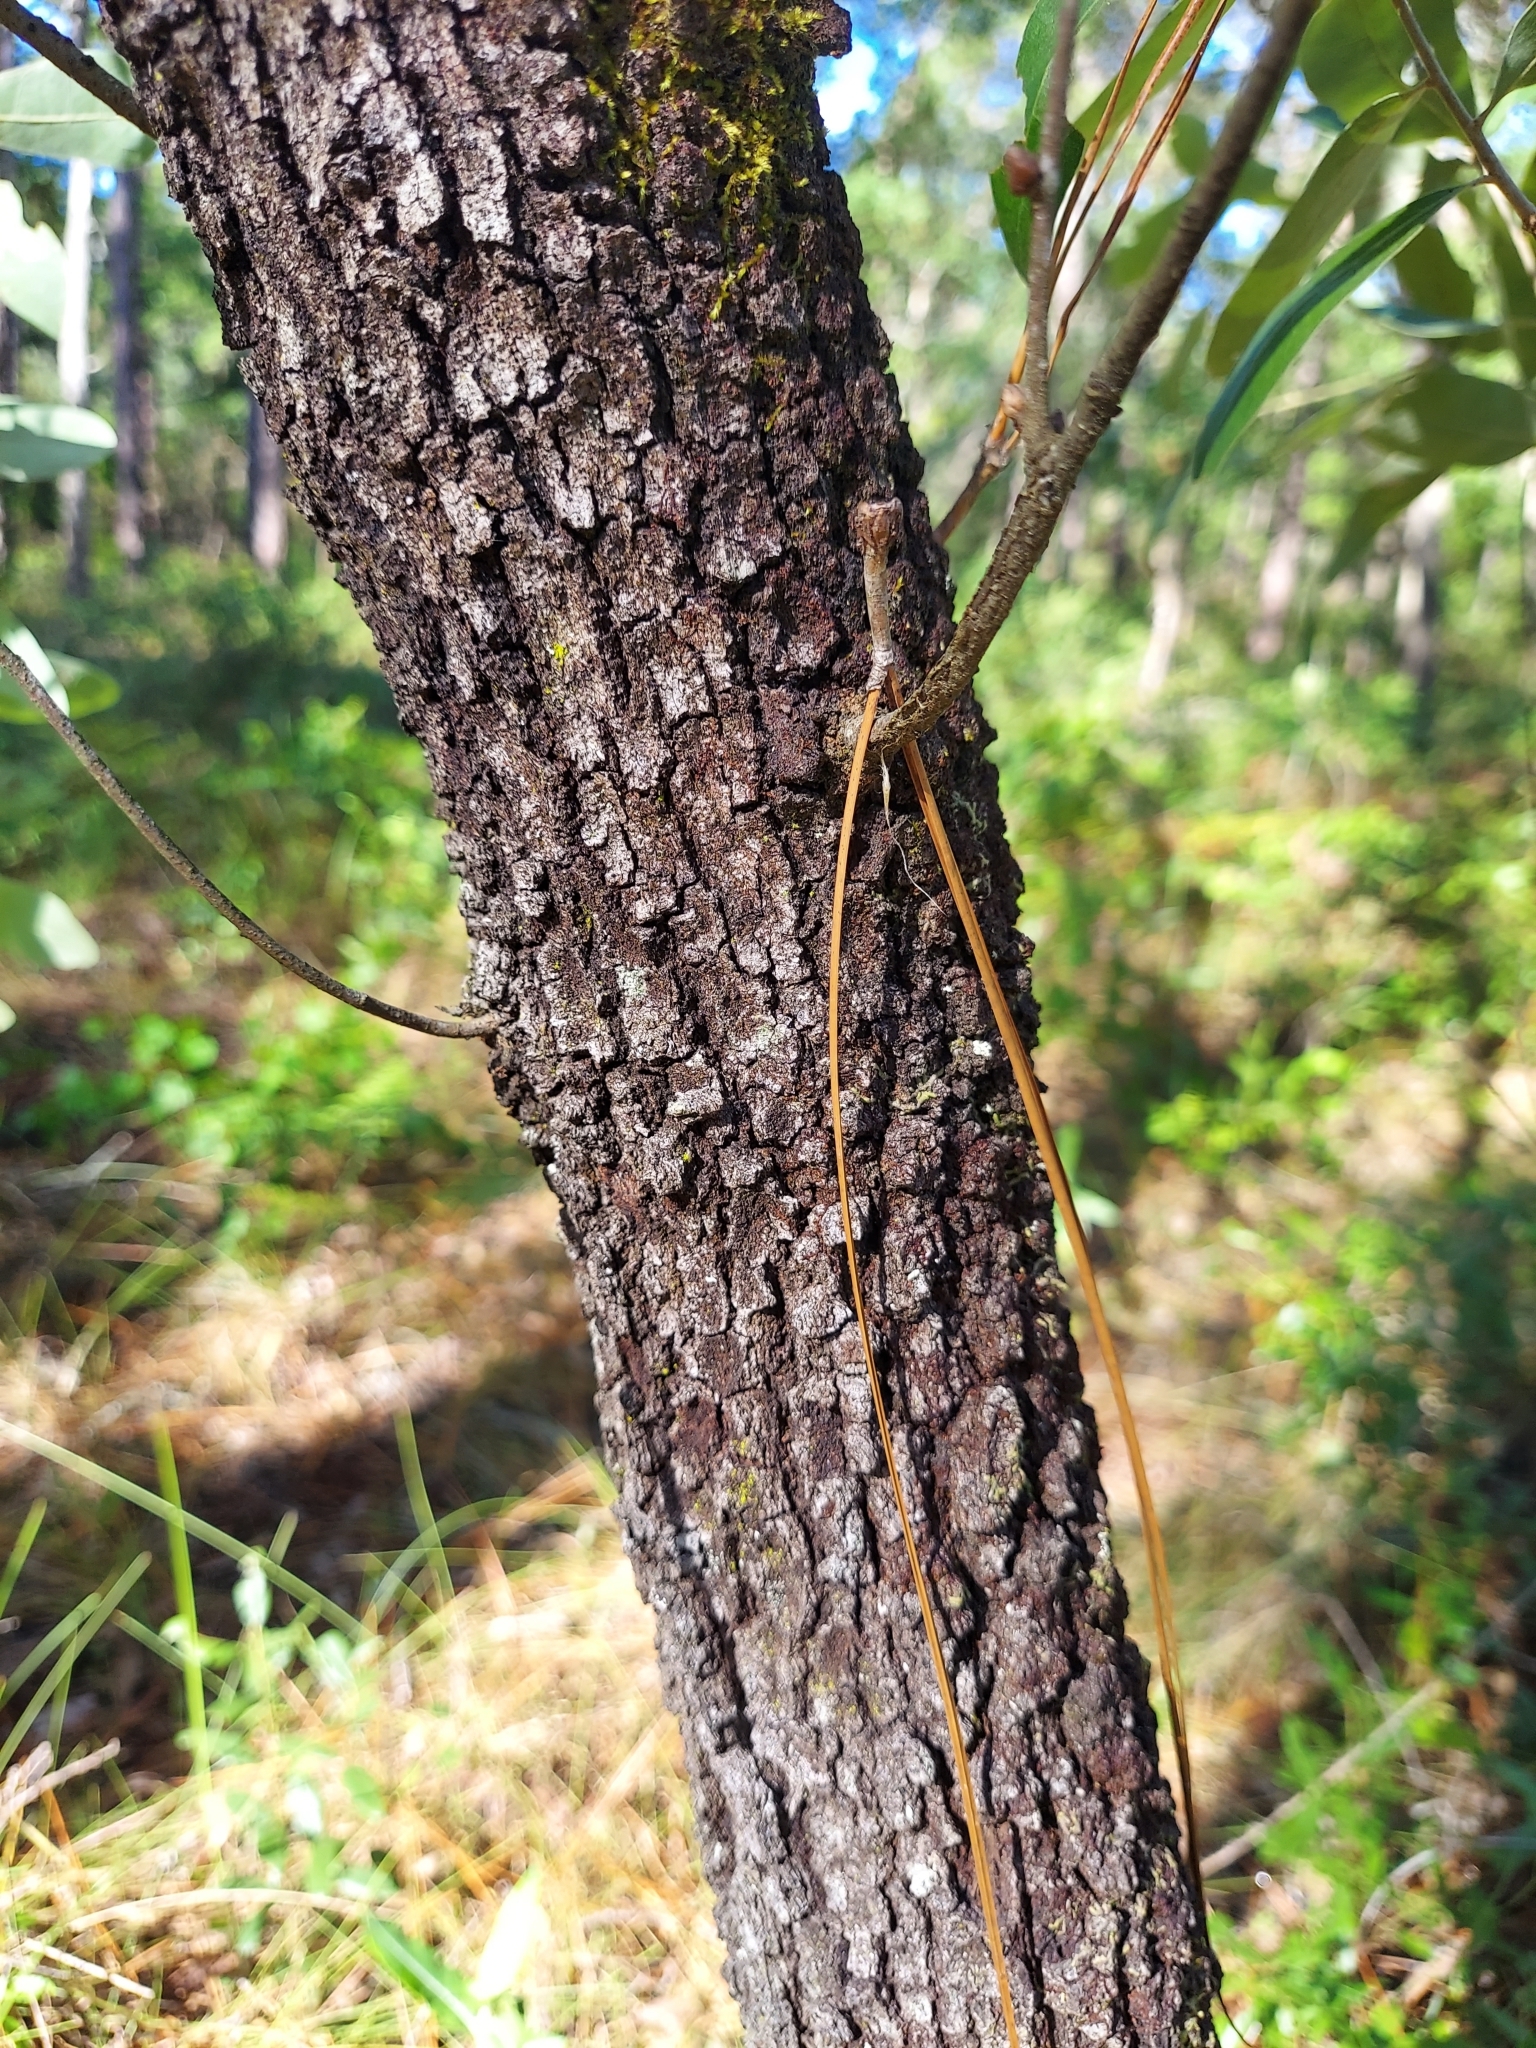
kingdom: Plantae
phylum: Tracheophyta
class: Magnoliopsida
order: Fagales
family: Fagaceae
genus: Quercus
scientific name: Quercus incana
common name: Bluejack oak
